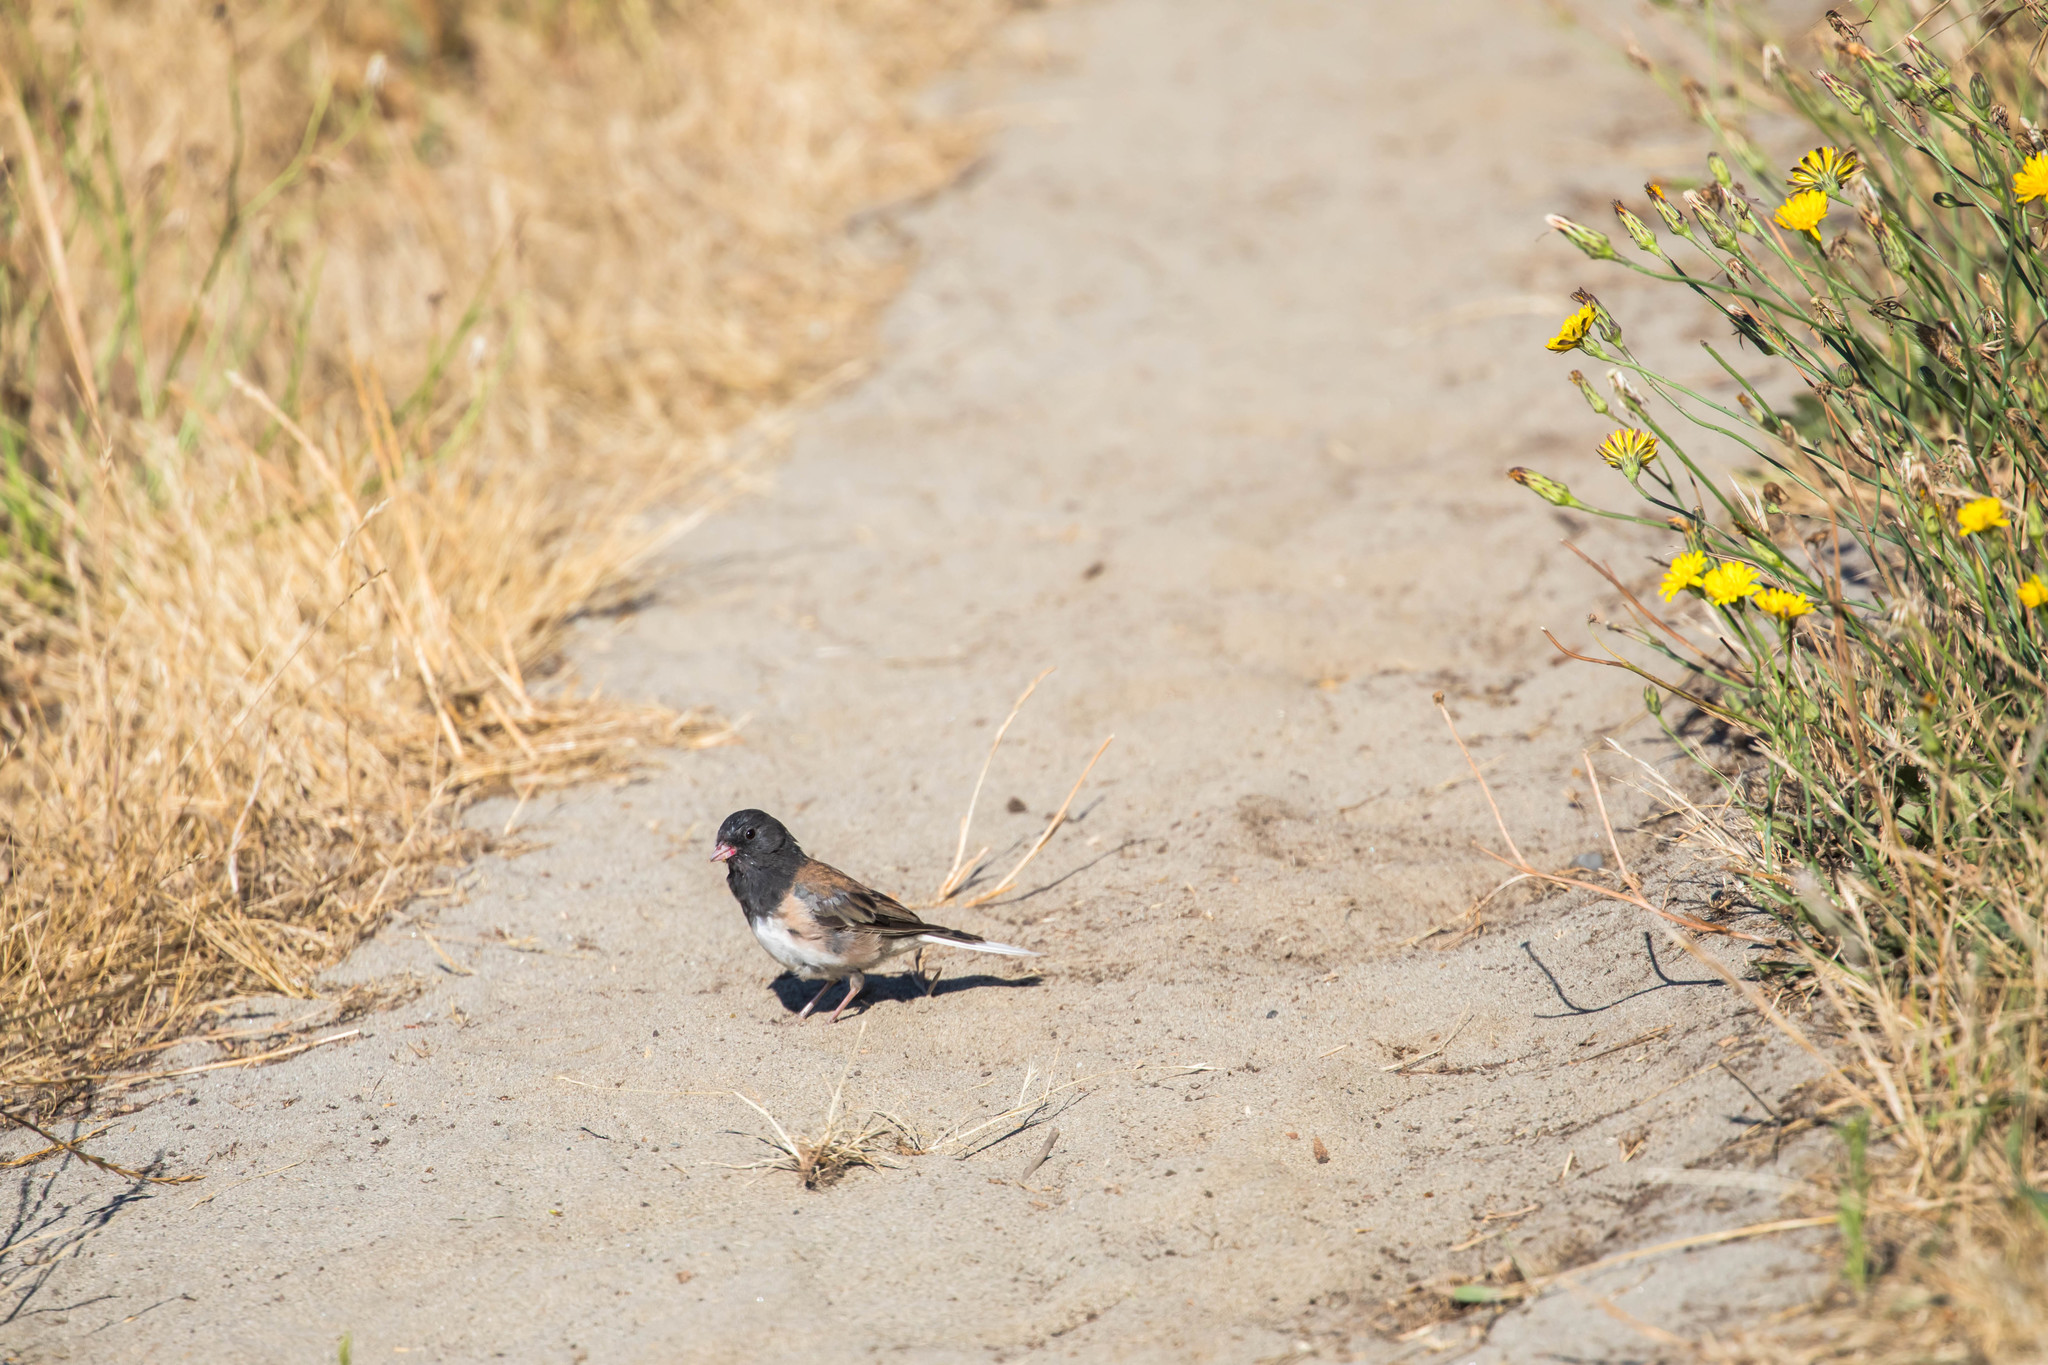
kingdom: Animalia
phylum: Chordata
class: Aves
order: Passeriformes
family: Passerellidae
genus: Junco
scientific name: Junco hyemalis
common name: Dark-eyed junco
